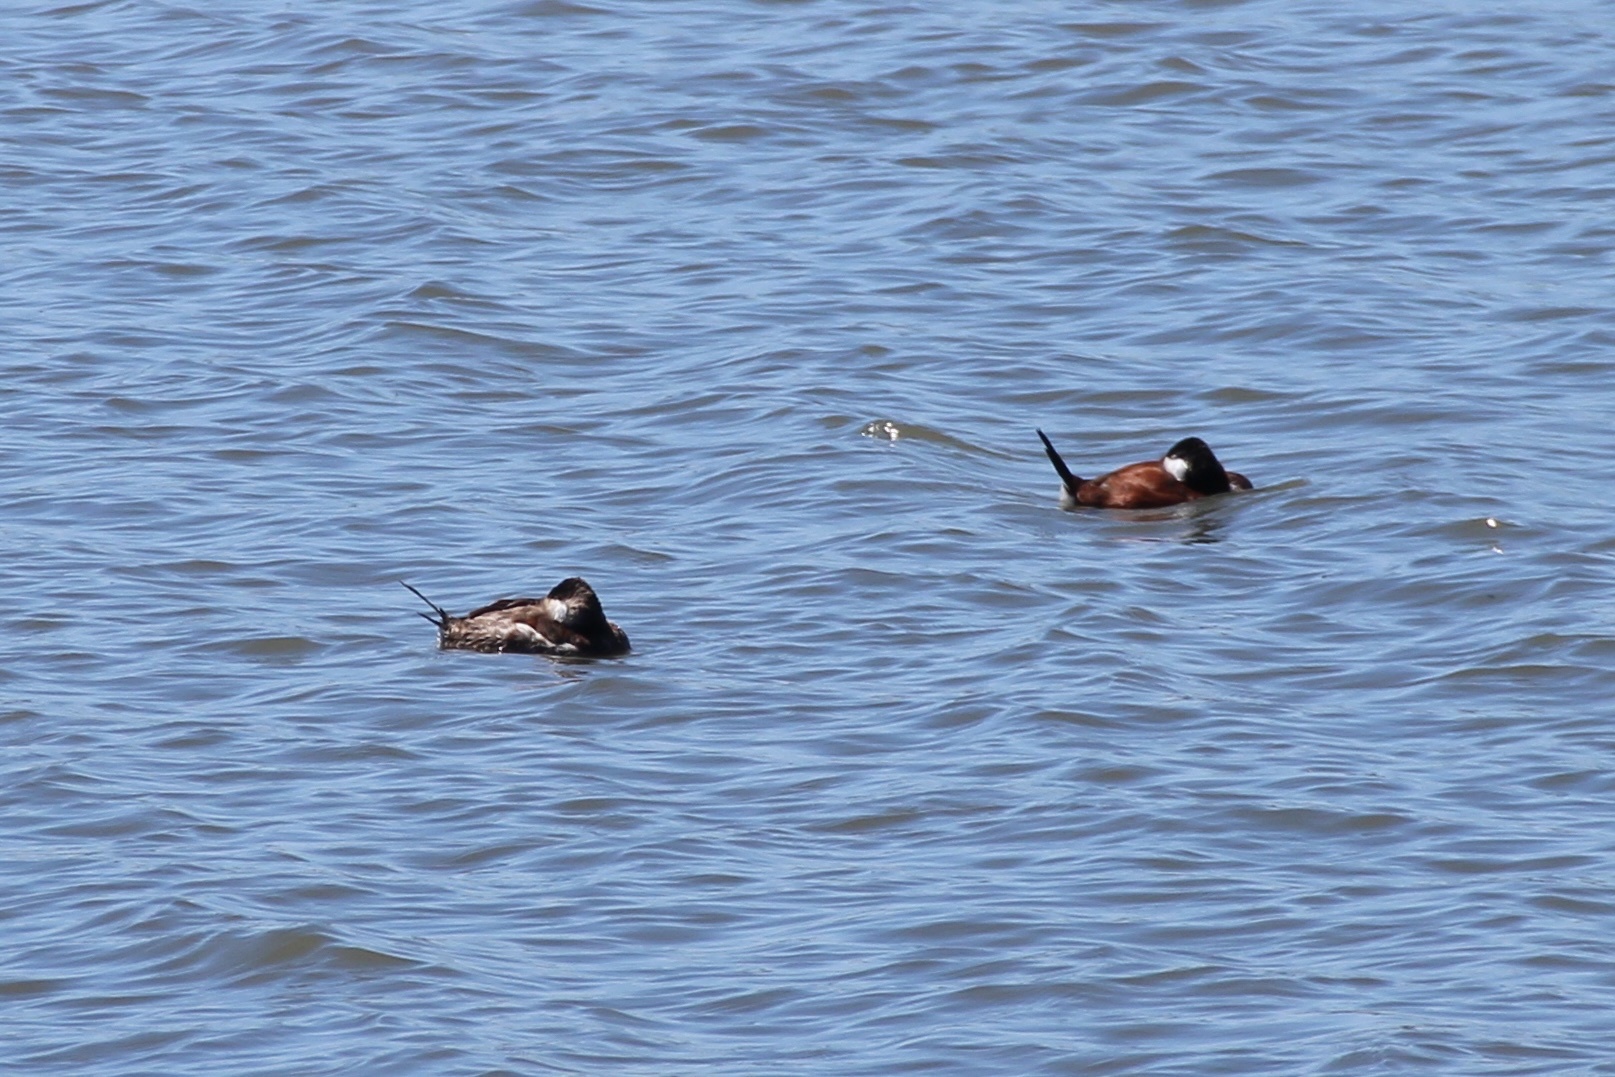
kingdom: Animalia
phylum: Chordata
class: Aves
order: Anseriformes
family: Anatidae
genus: Oxyura
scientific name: Oxyura jamaicensis
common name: Ruddy duck
